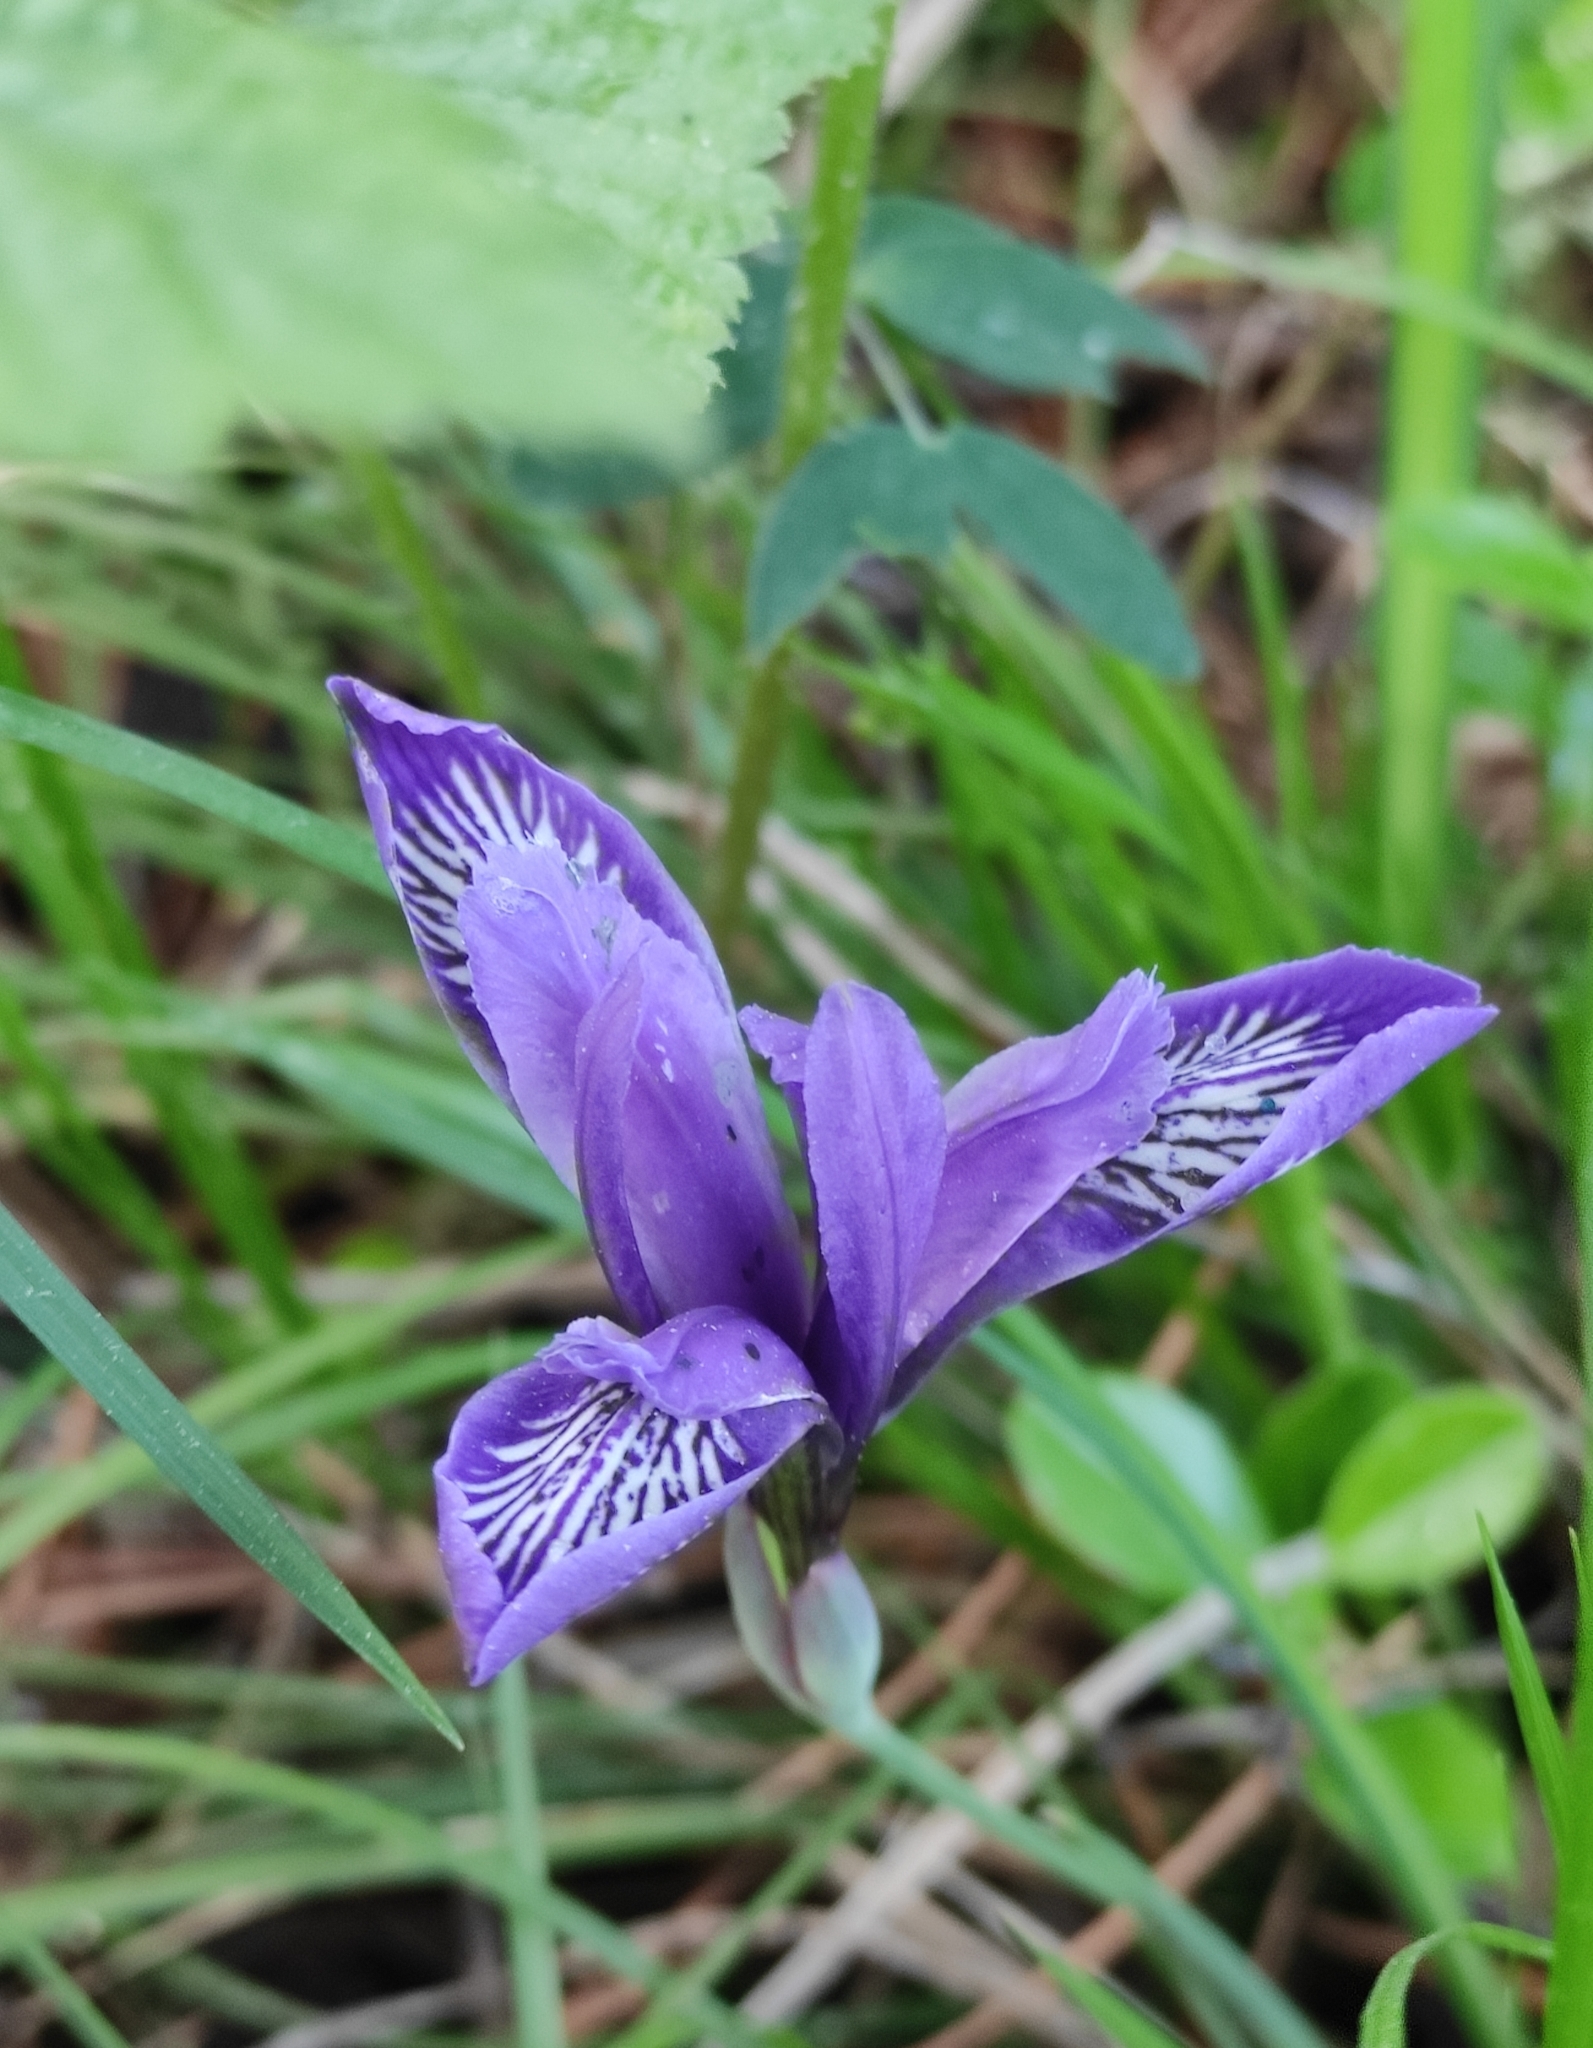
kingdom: Plantae
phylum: Tracheophyta
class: Liliopsida
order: Asparagales
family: Iridaceae
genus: Iris
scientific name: Iris ruthenica
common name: Purple-bract iris
